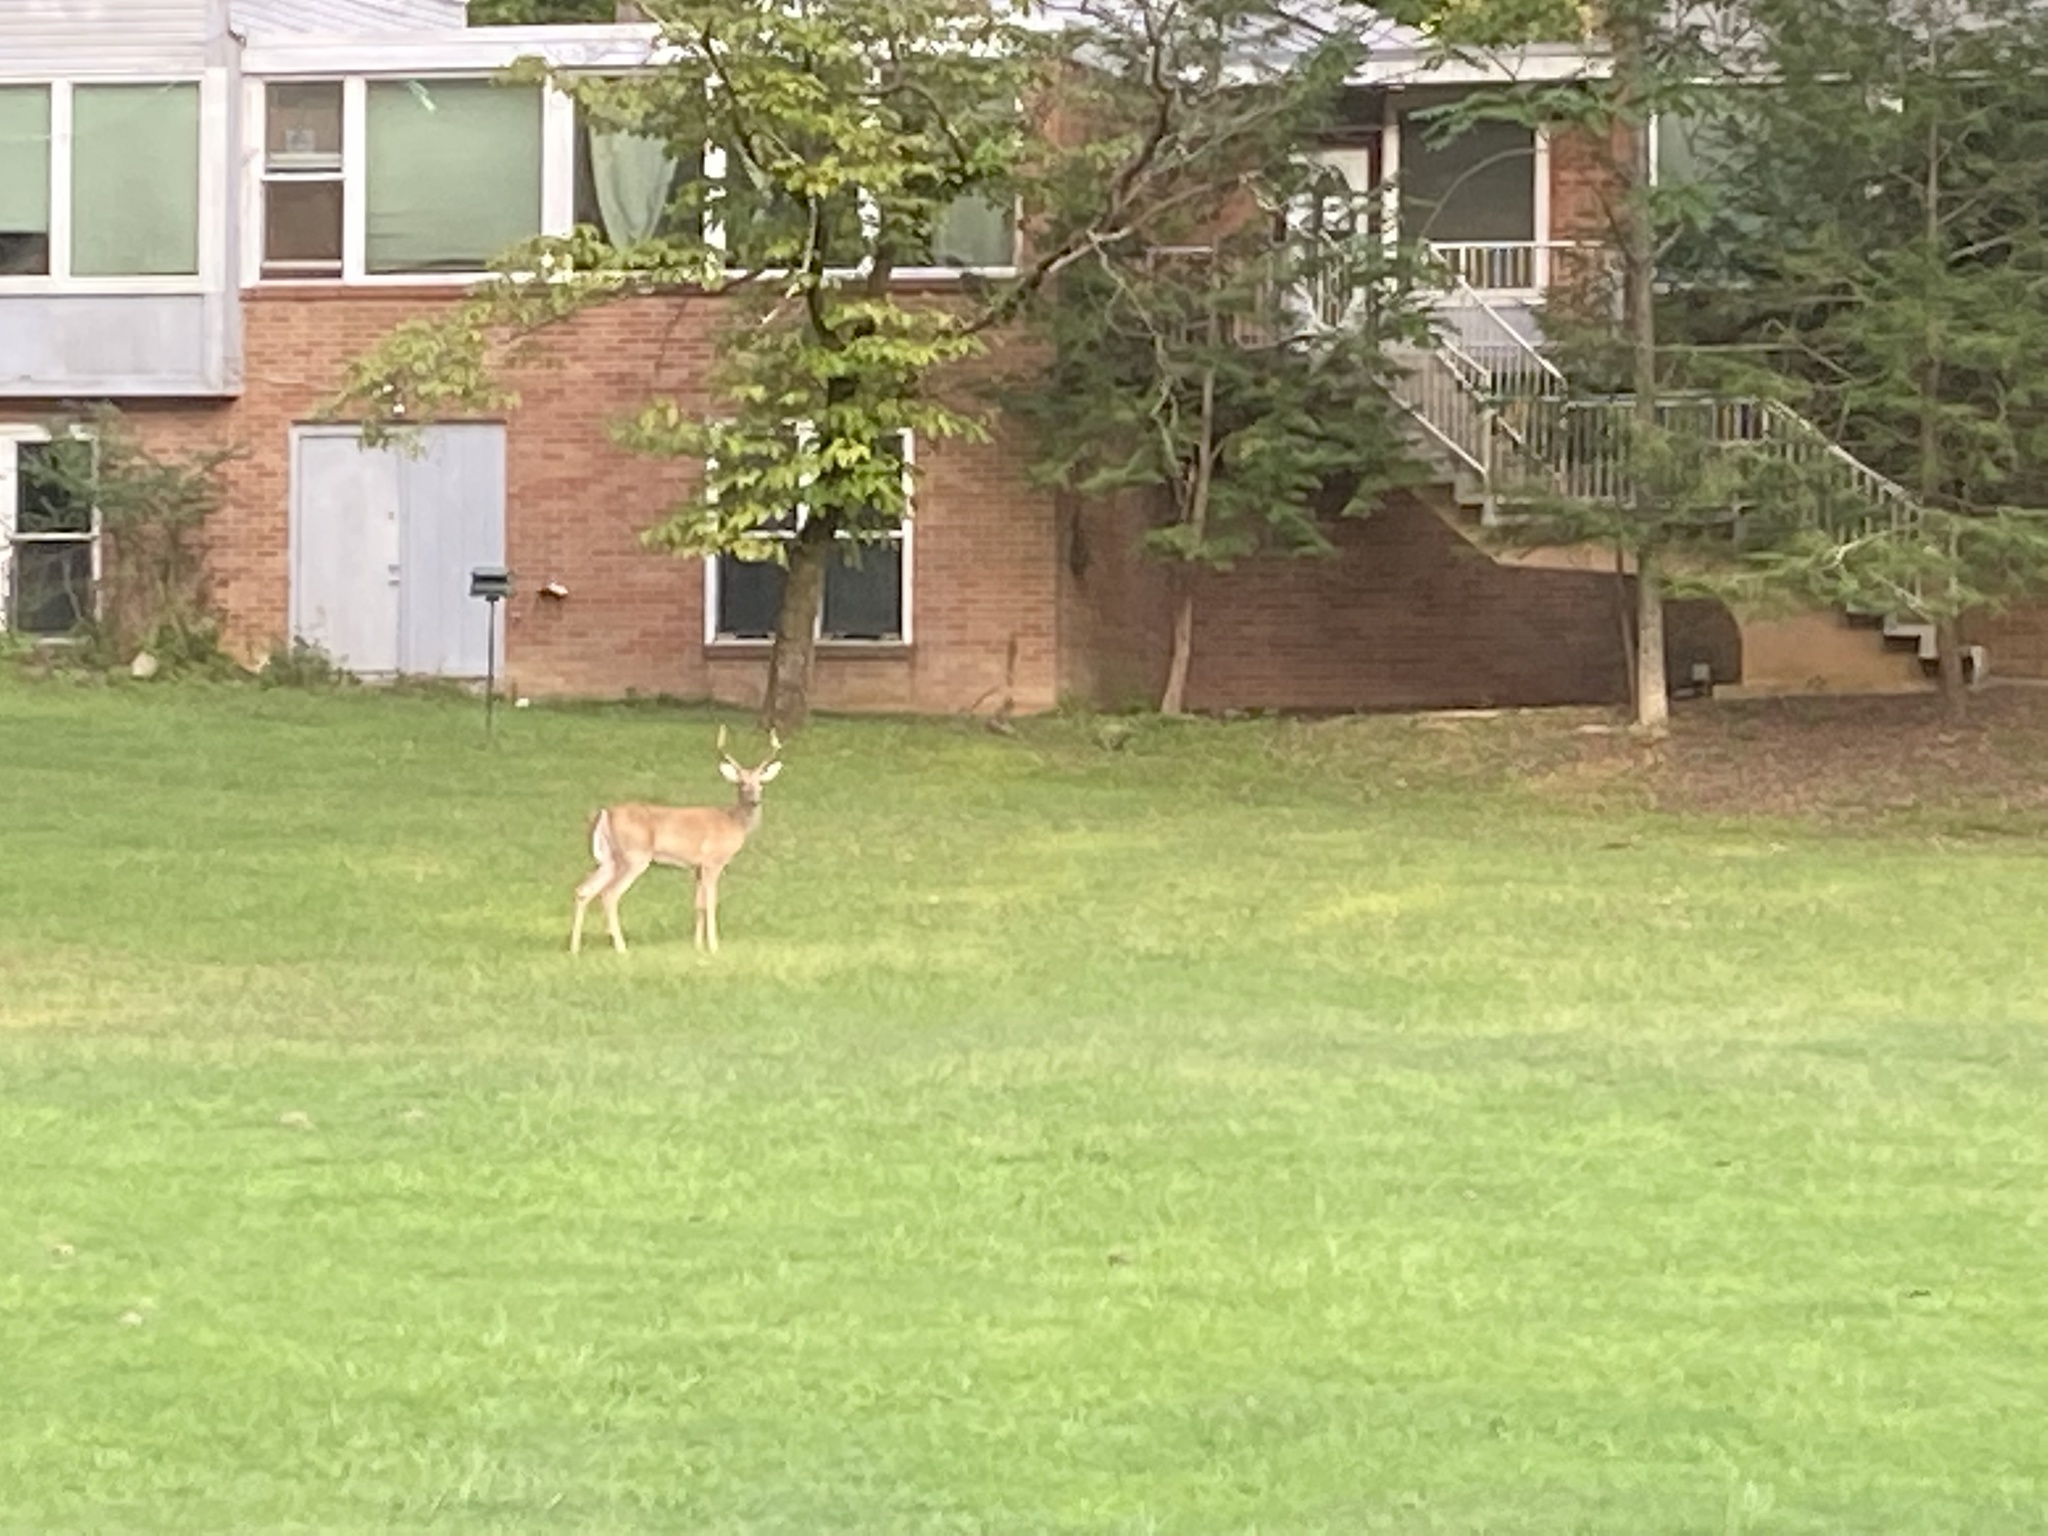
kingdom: Animalia
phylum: Chordata
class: Mammalia
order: Artiodactyla
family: Cervidae
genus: Odocoileus
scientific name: Odocoileus virginianus
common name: White-tailed deer
